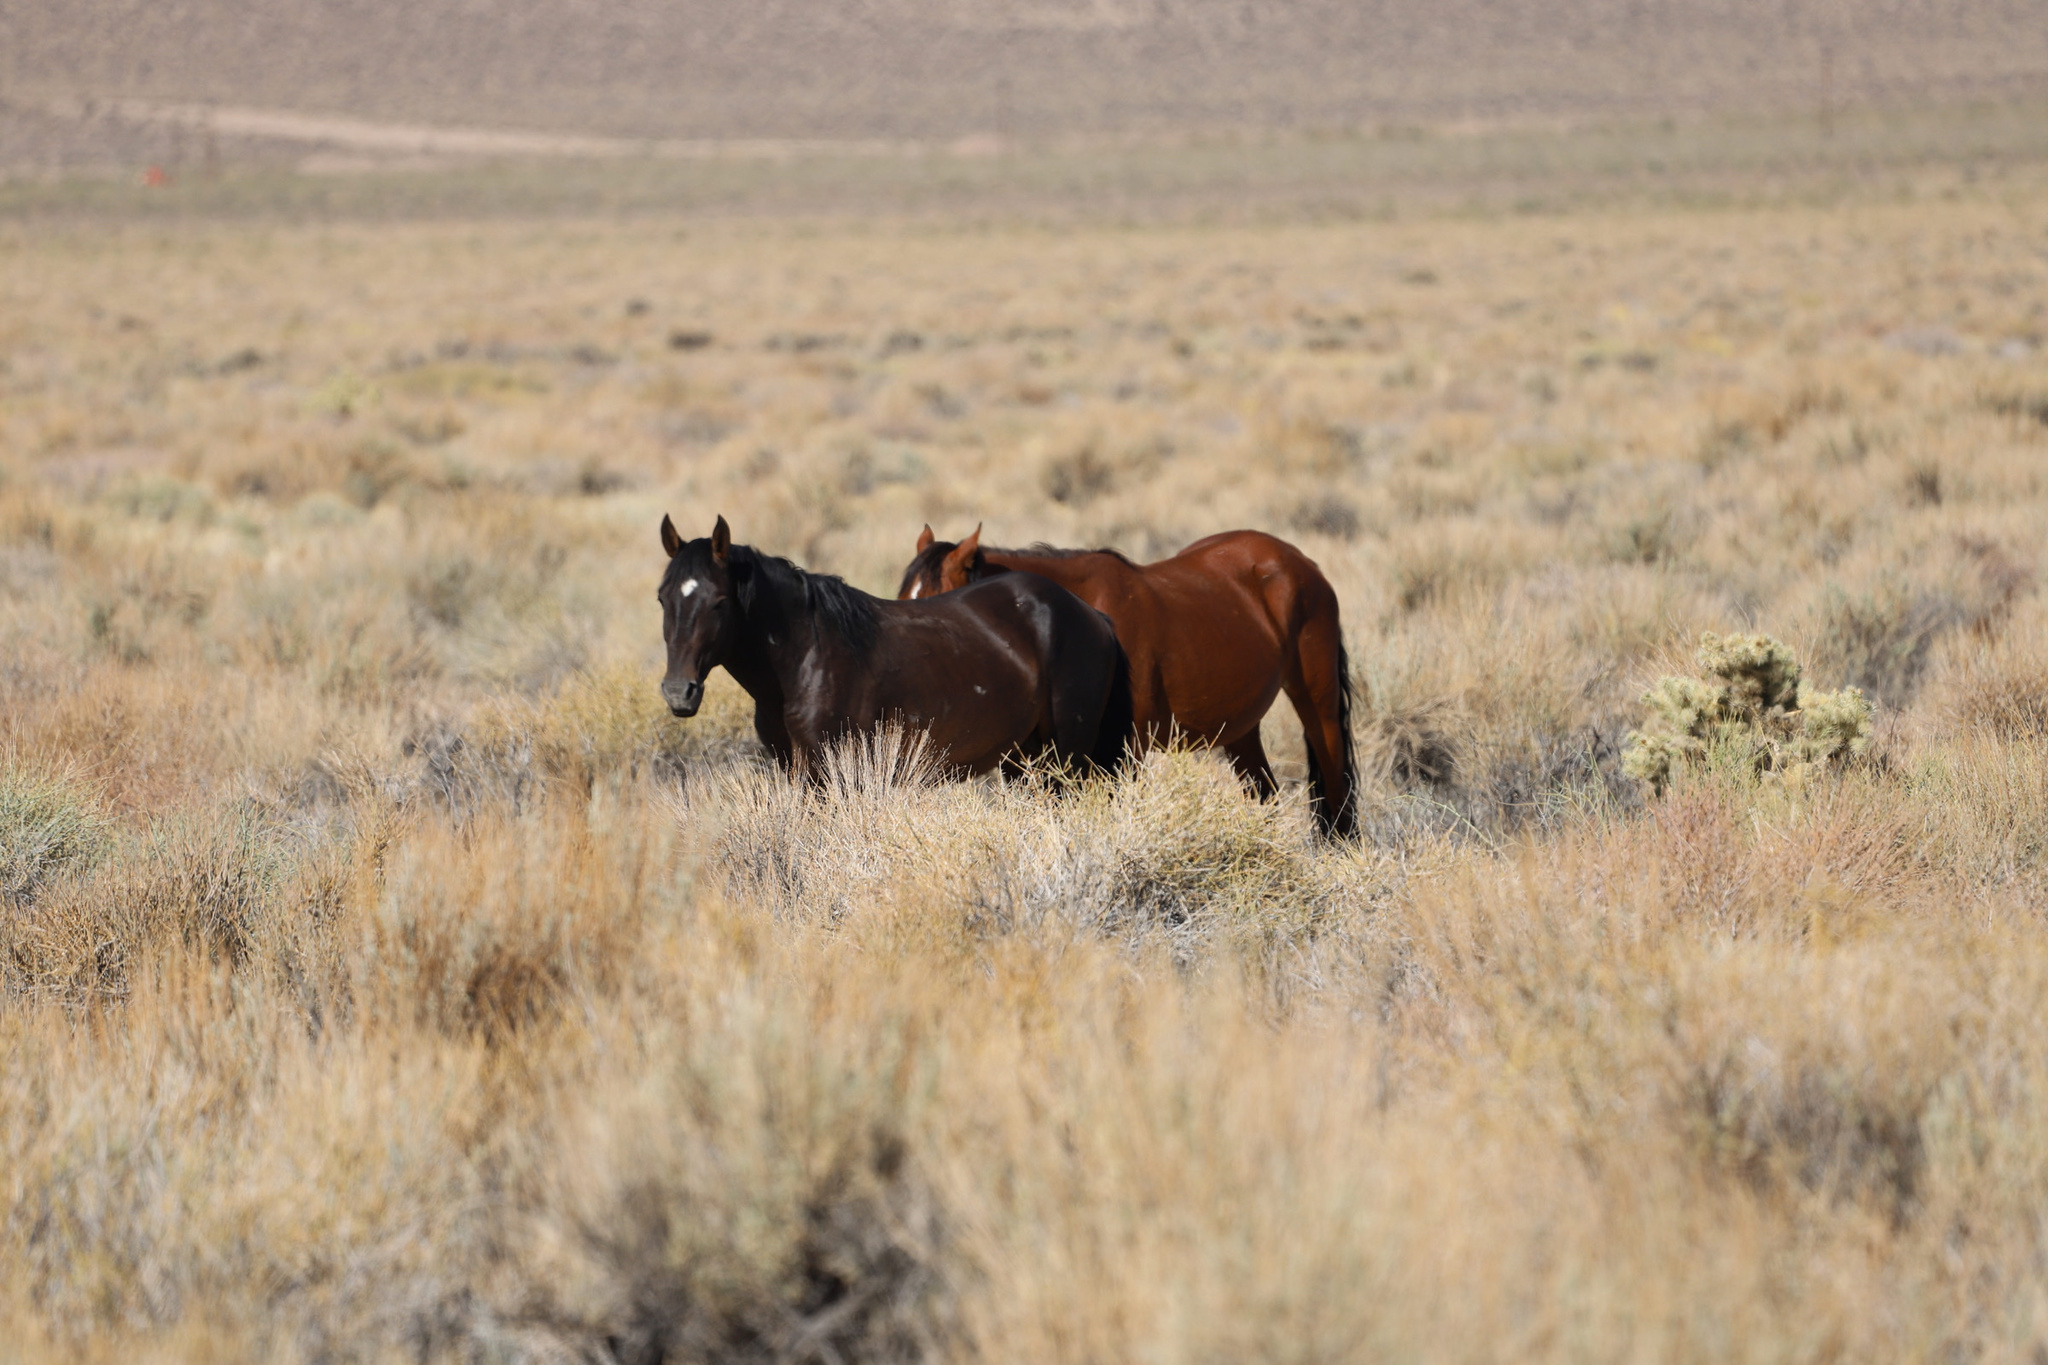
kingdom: Animalia
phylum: Chordata
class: Mammalia
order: Perissodactyla
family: Equidae
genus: Equus
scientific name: Equus caballus
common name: Horse
